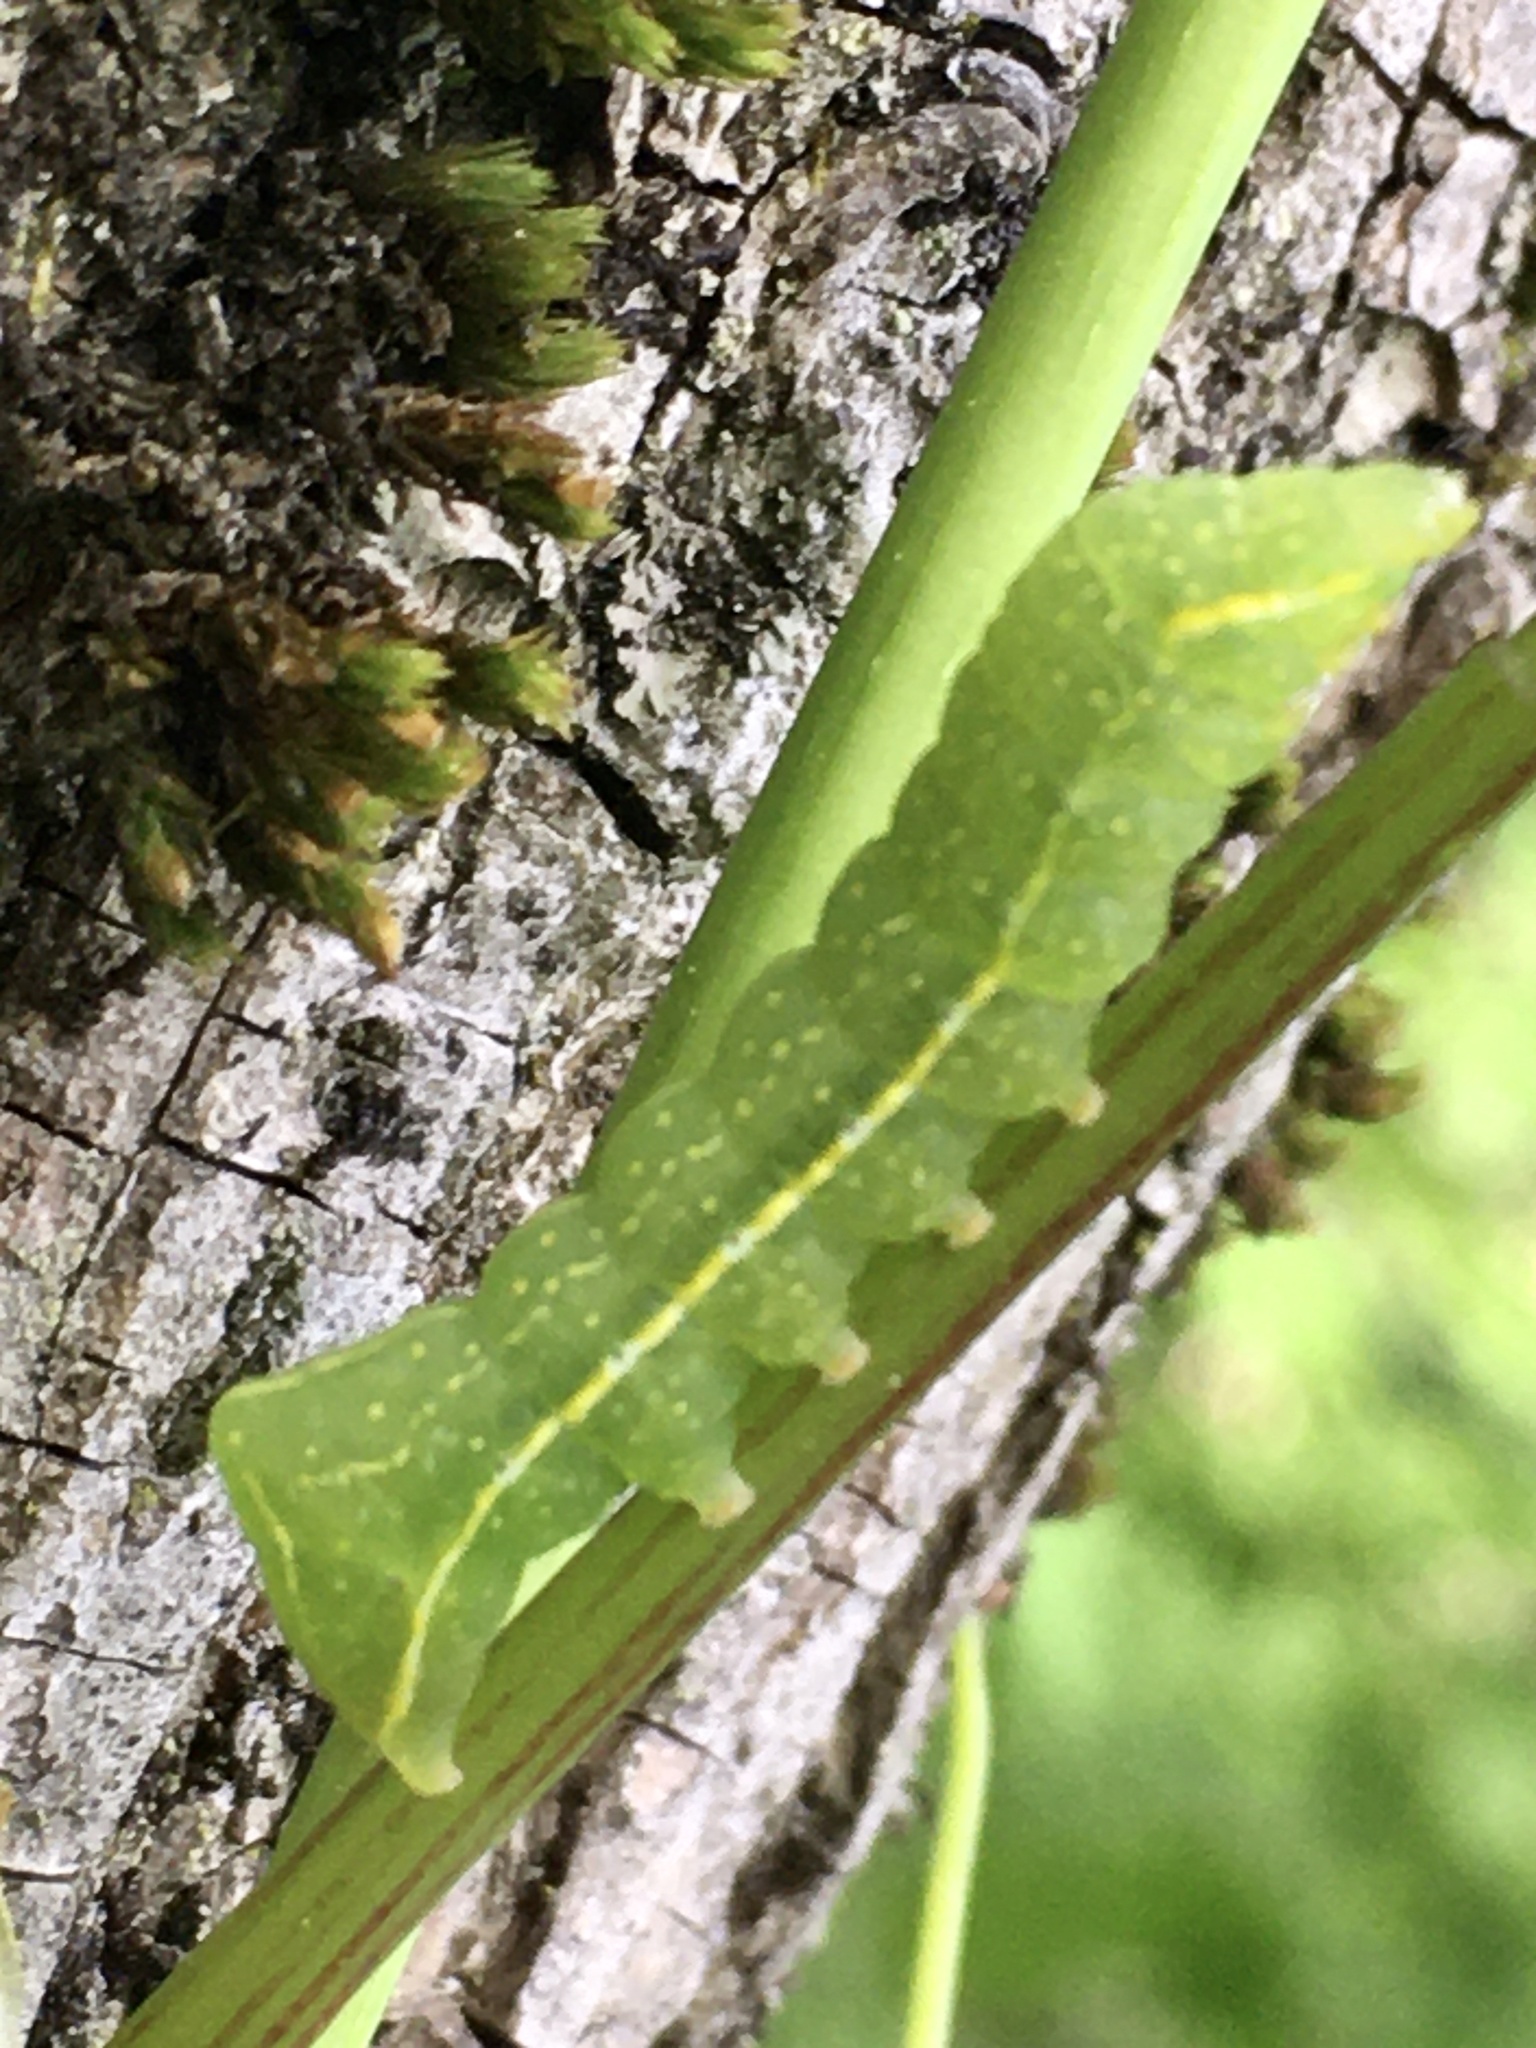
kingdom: Animalia
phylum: Arthropoda
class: Insecta
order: Lepidoptera
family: Noctuidae
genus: Amphipyra
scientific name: Amphipyra pyramidoides
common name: American copper underwing
